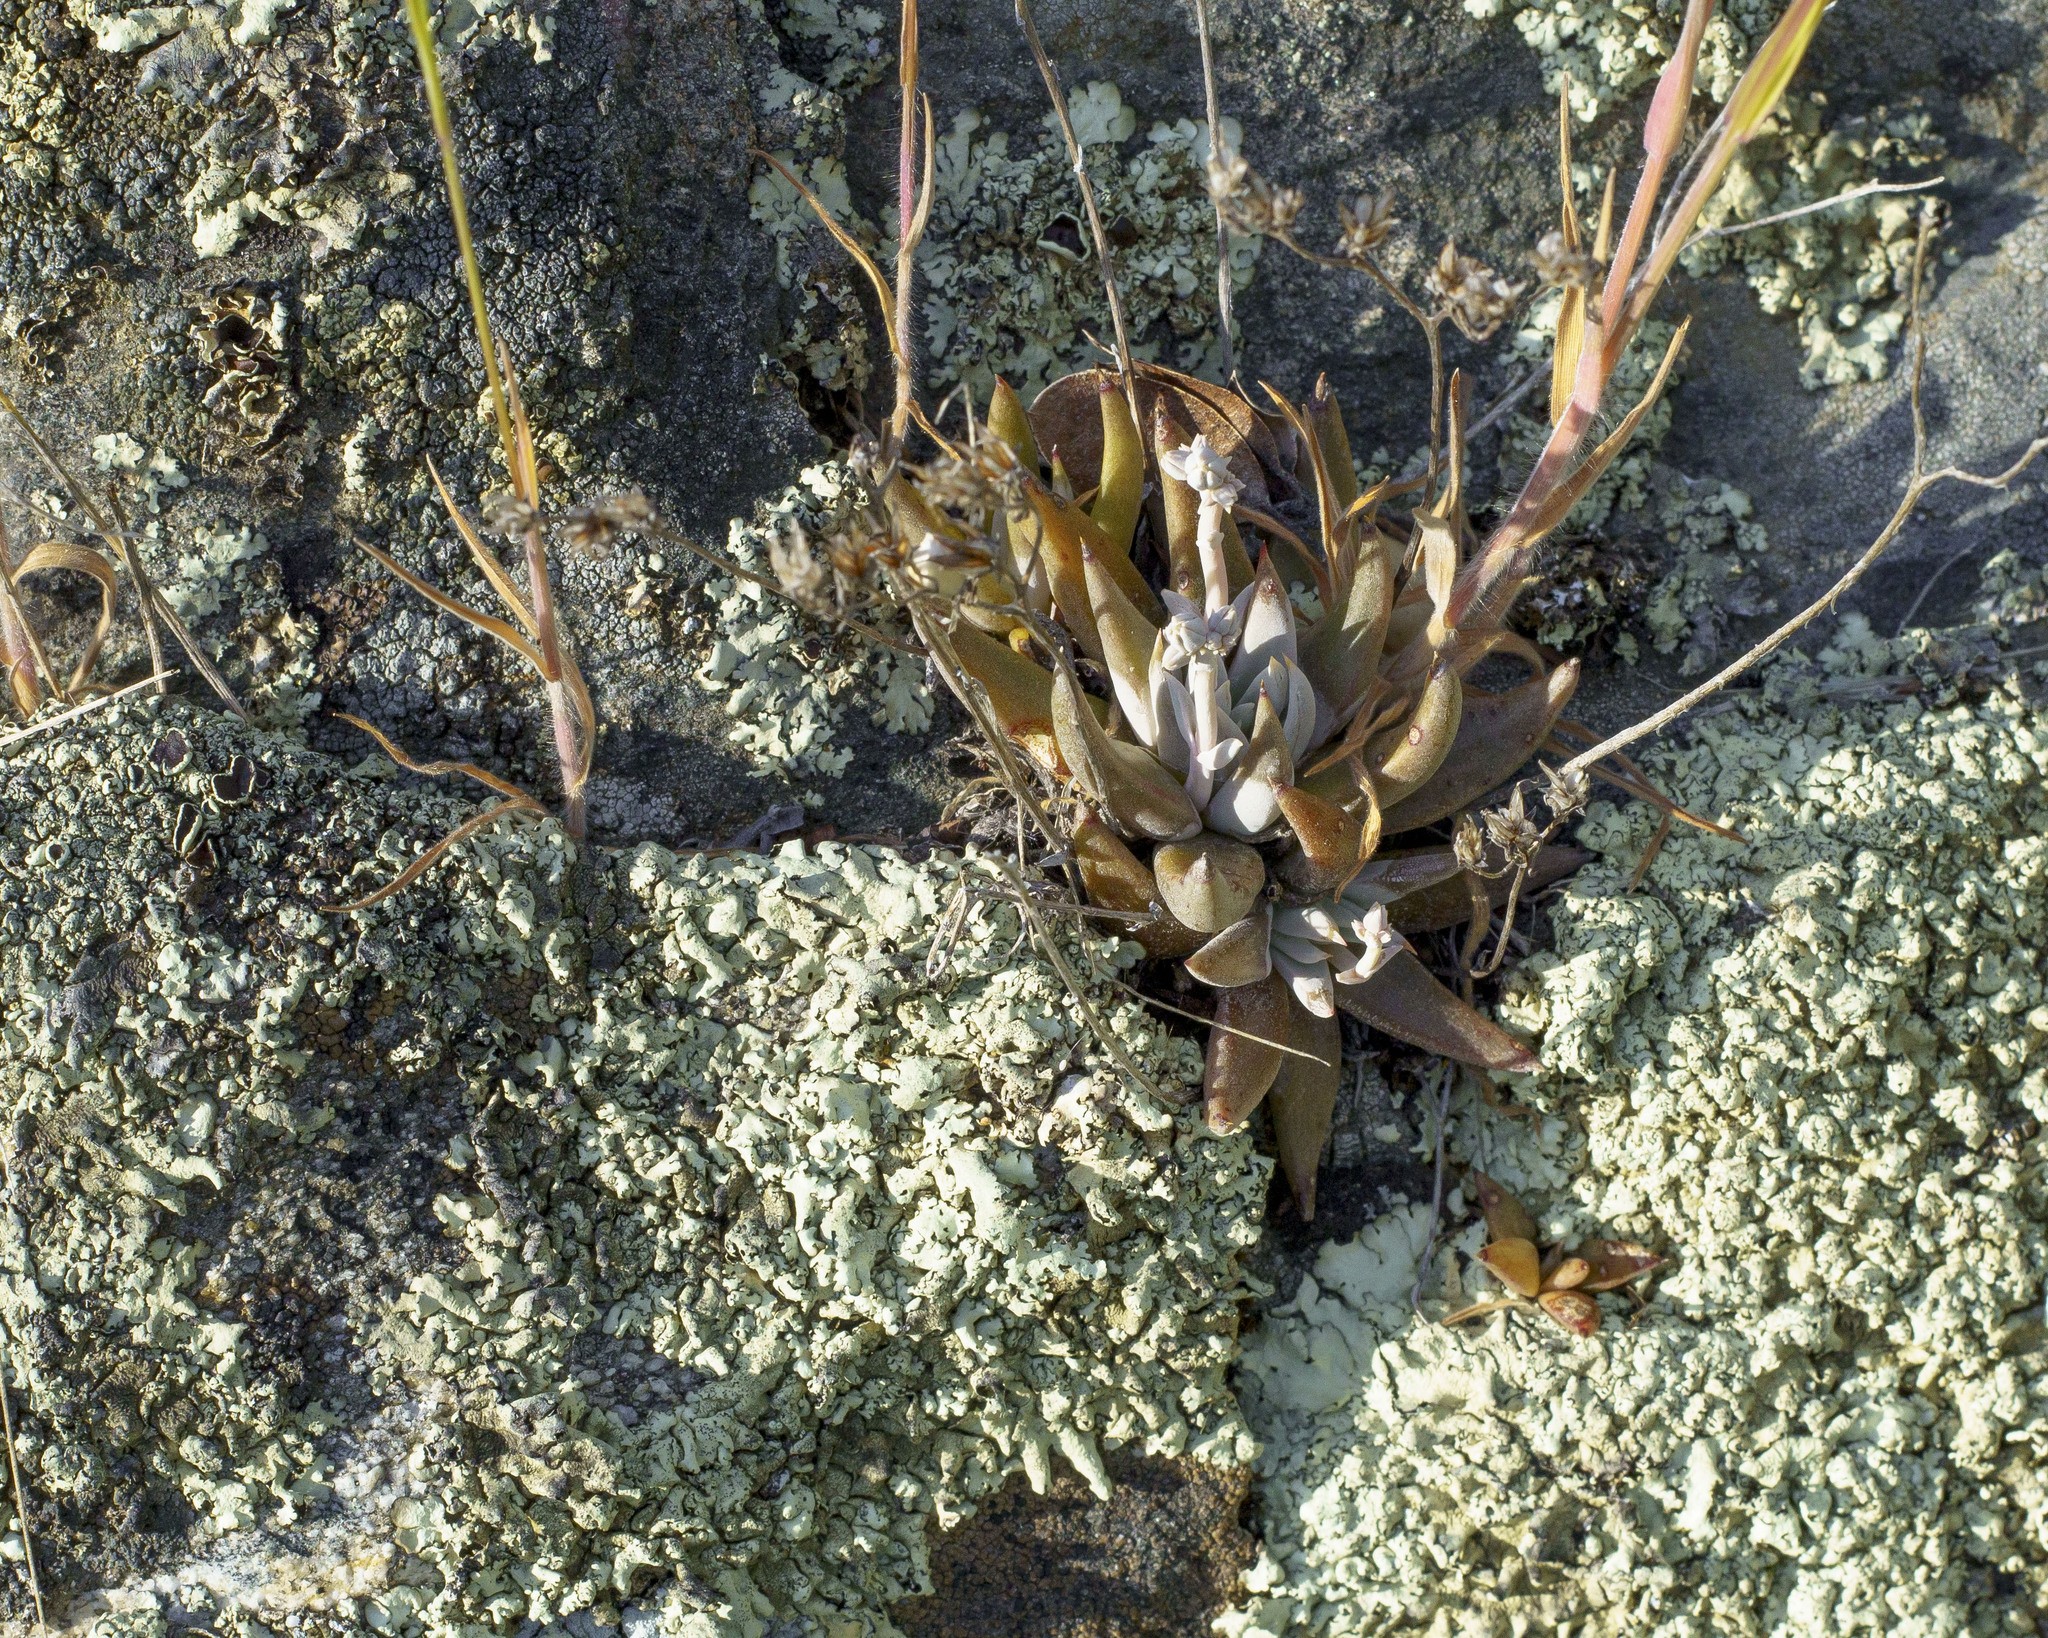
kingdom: Plantae
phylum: Tracheophyta
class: Magnoliopsida
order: Saxifragales
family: Crassulaceae
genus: Dudleya
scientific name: Dudleya abramsii
